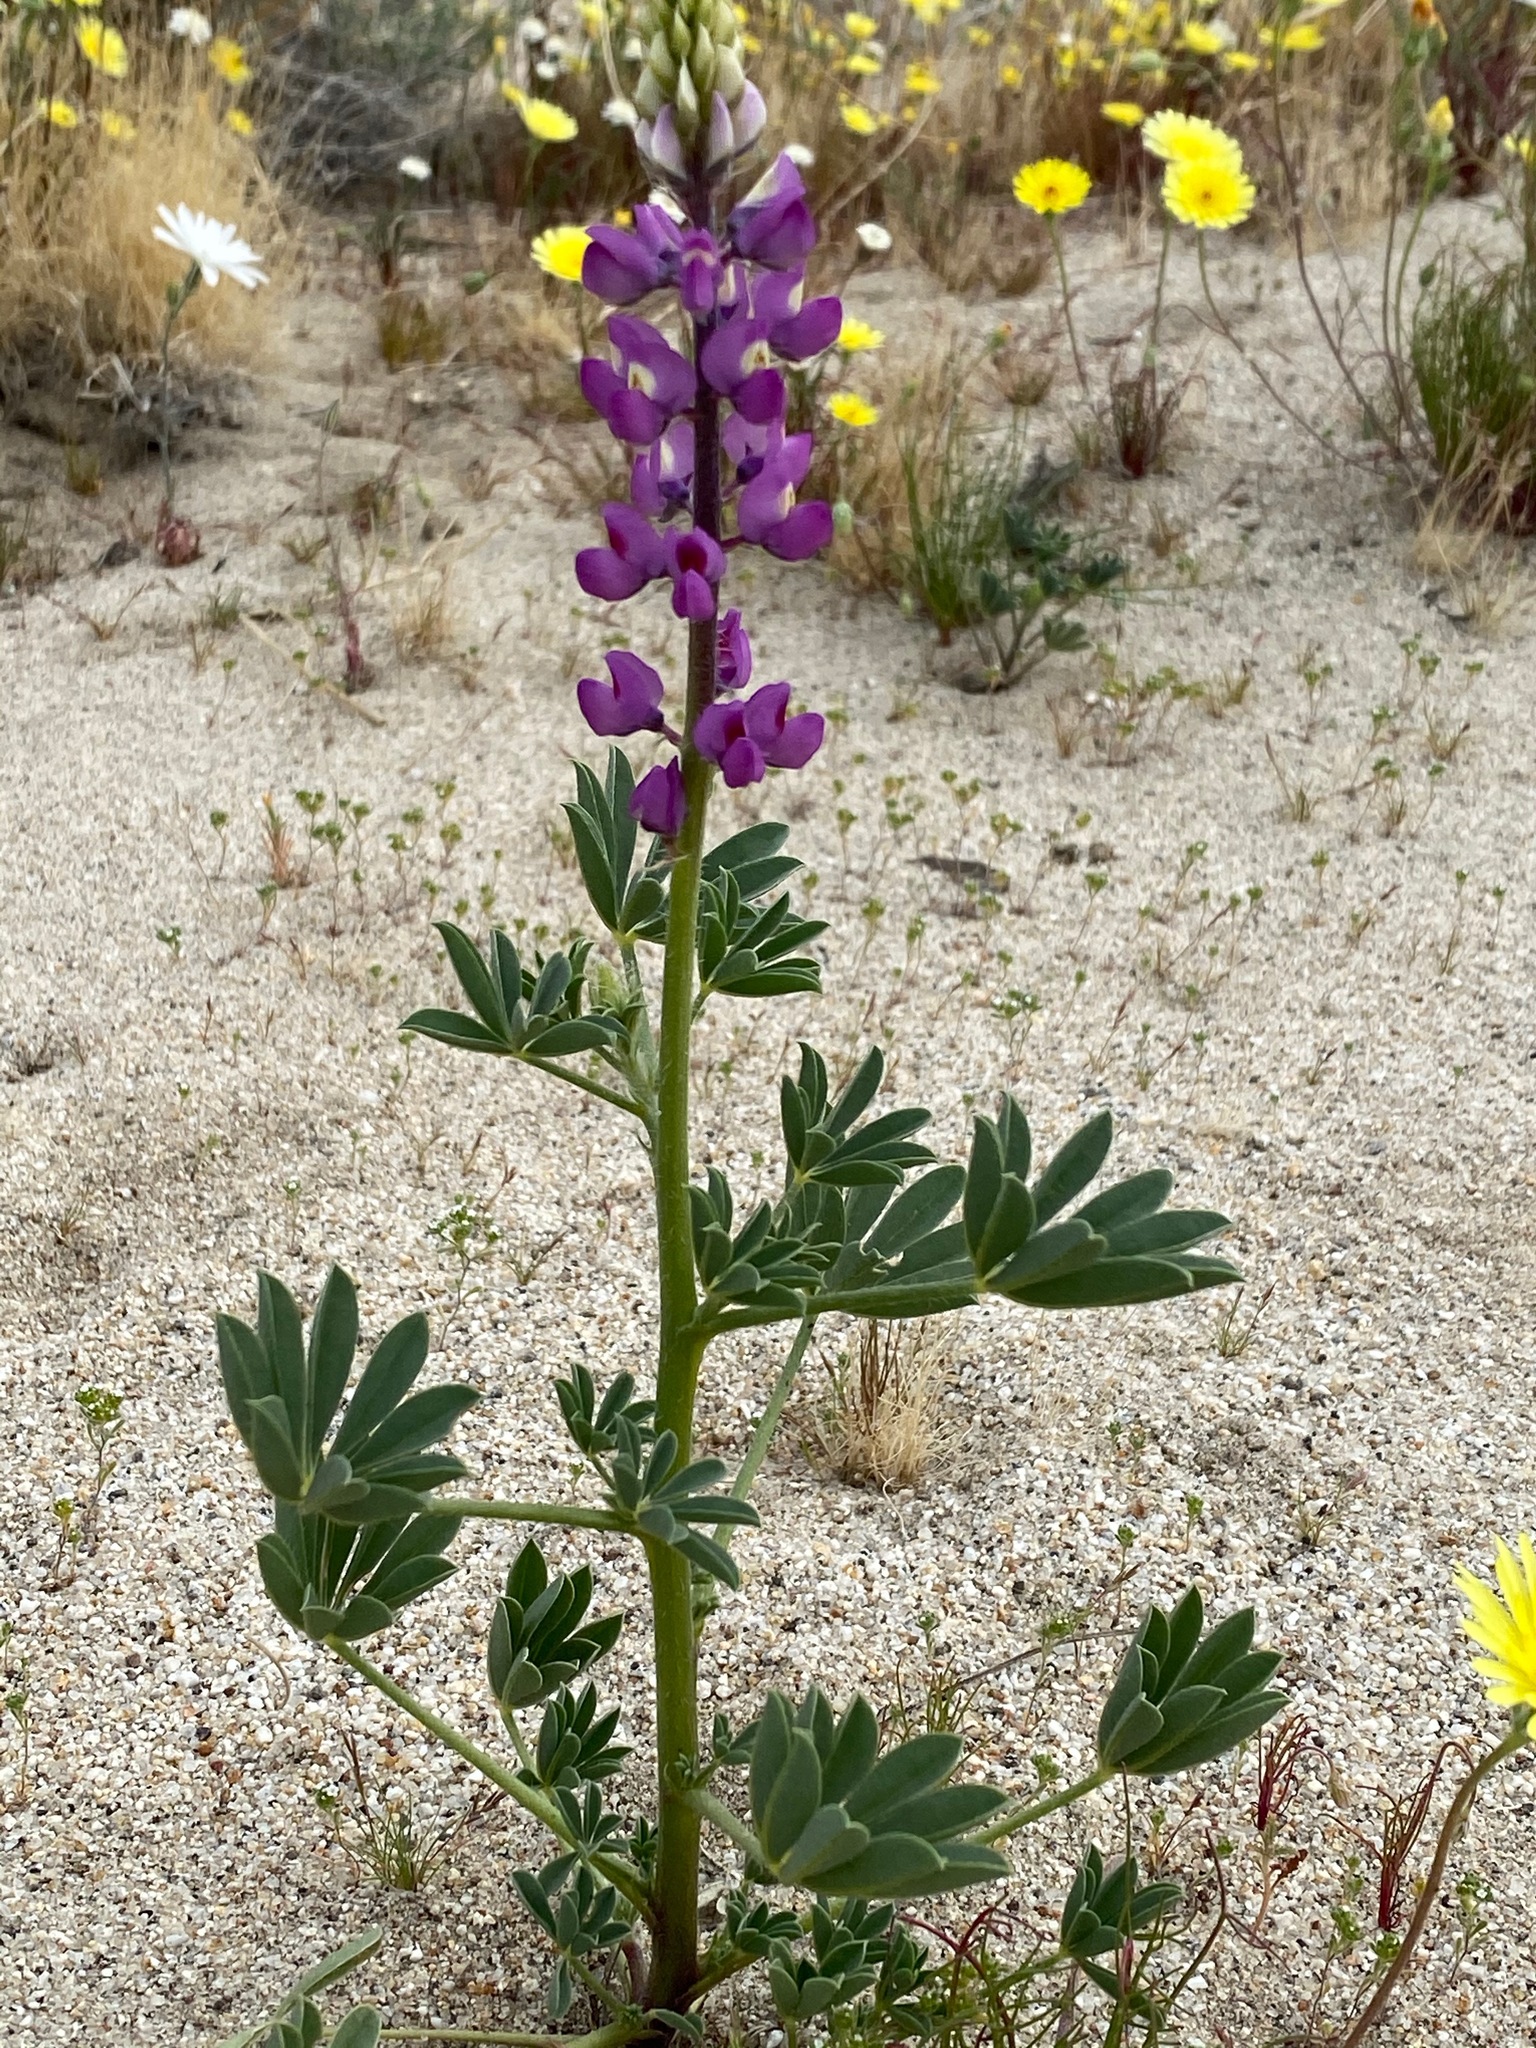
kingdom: Plantae
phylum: Tracheophyta
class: Magnoliopsida
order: Fabales
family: Fabaceae
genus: Lupinus
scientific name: Lupinus arizonicus
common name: Arizona lupine
